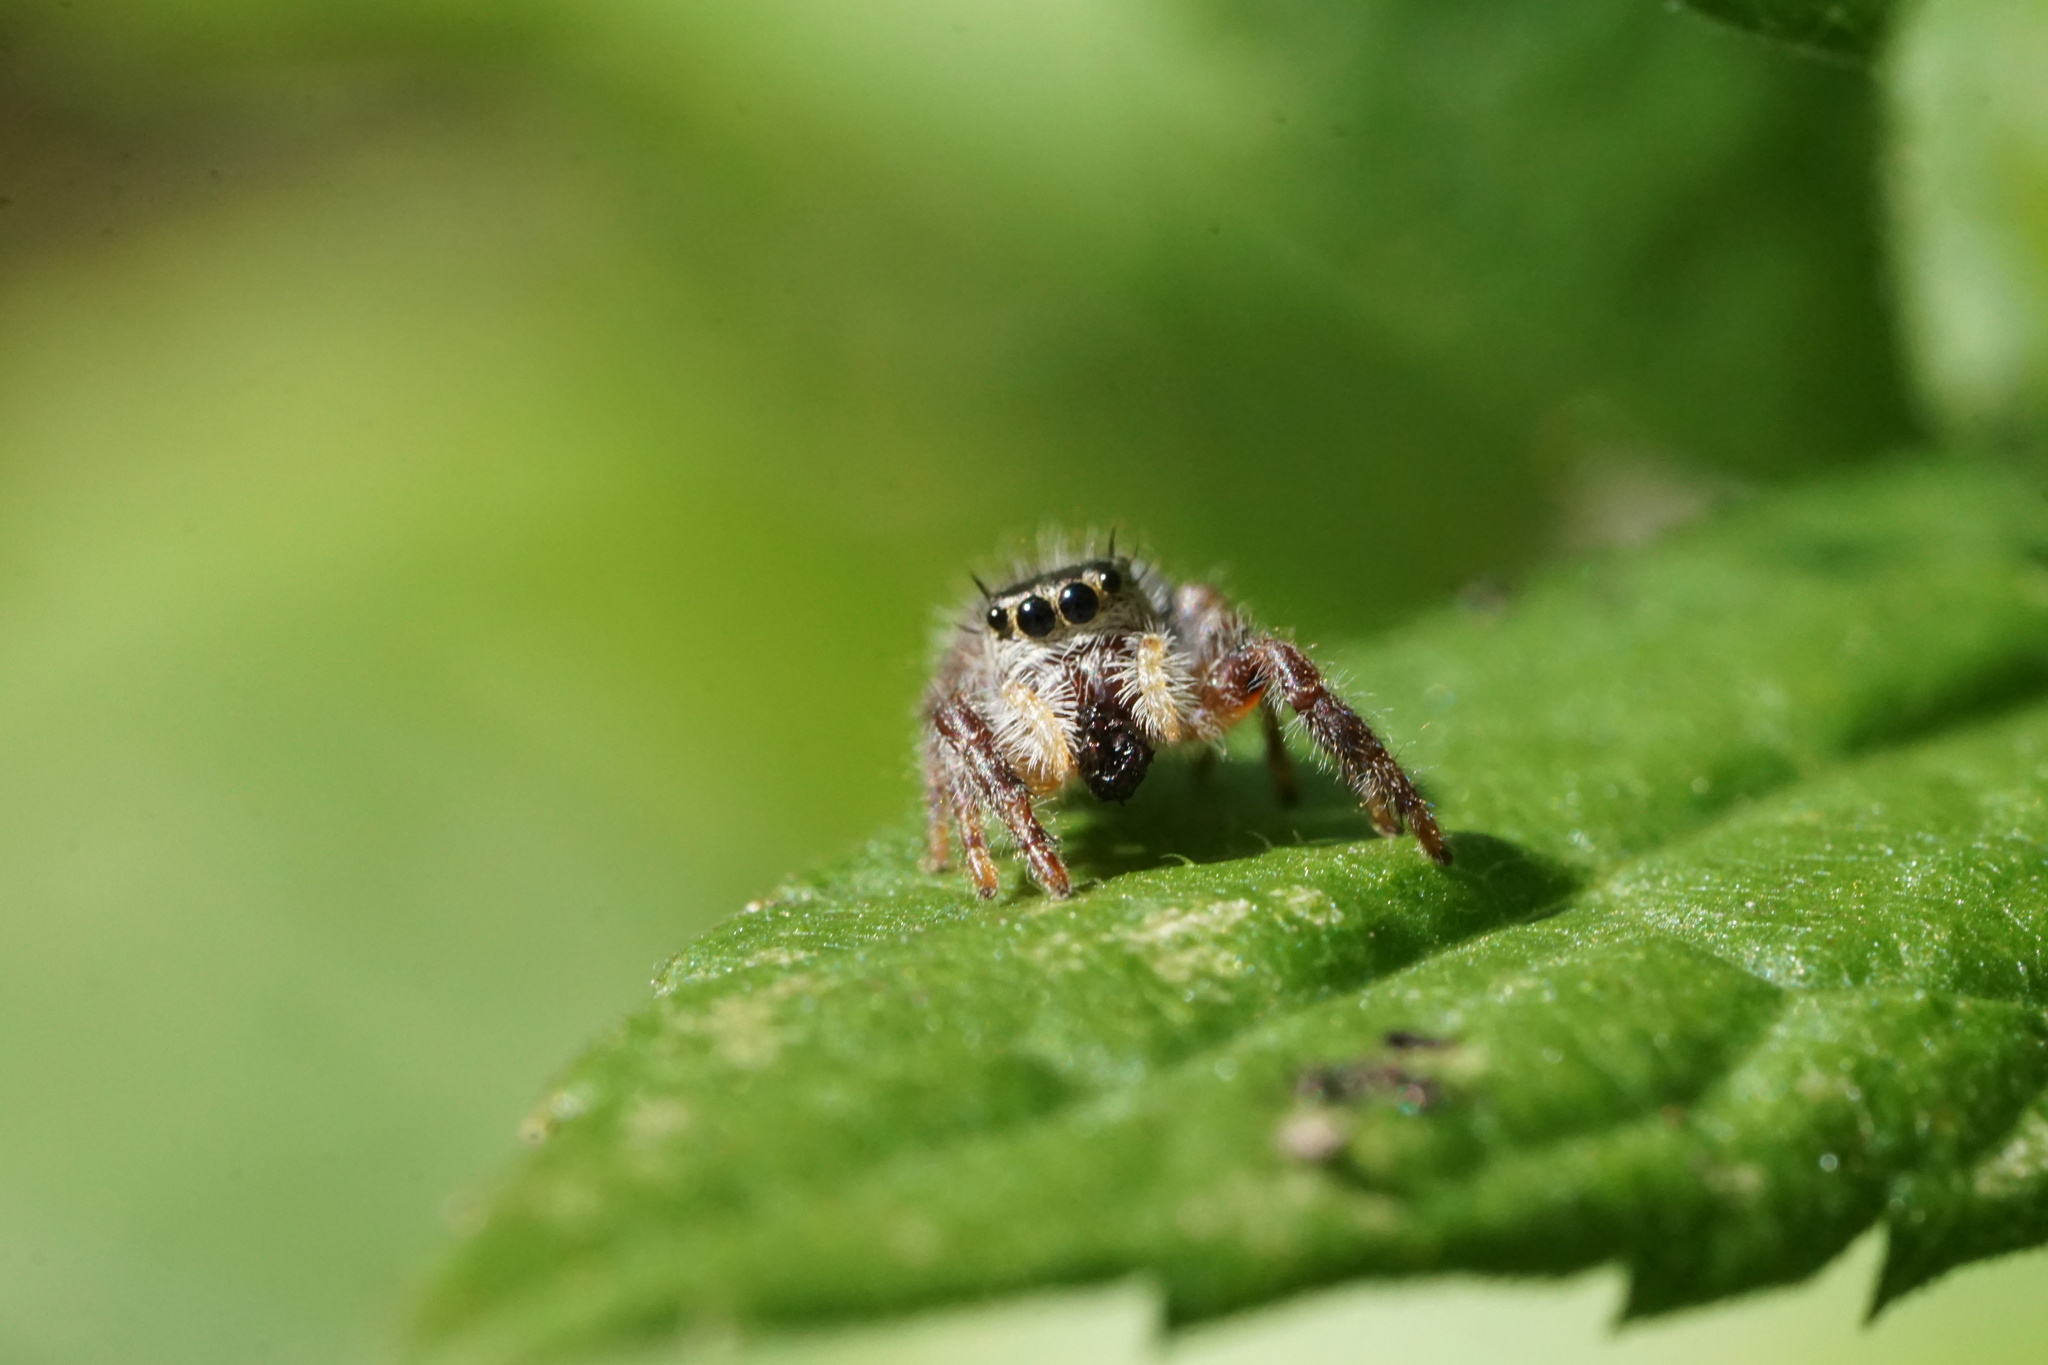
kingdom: Animalia
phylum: Arthropoda
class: Arachnida
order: Araneae
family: Salticidae
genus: Phidippus
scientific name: Phidippus princeps
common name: Grayish jumping spider
